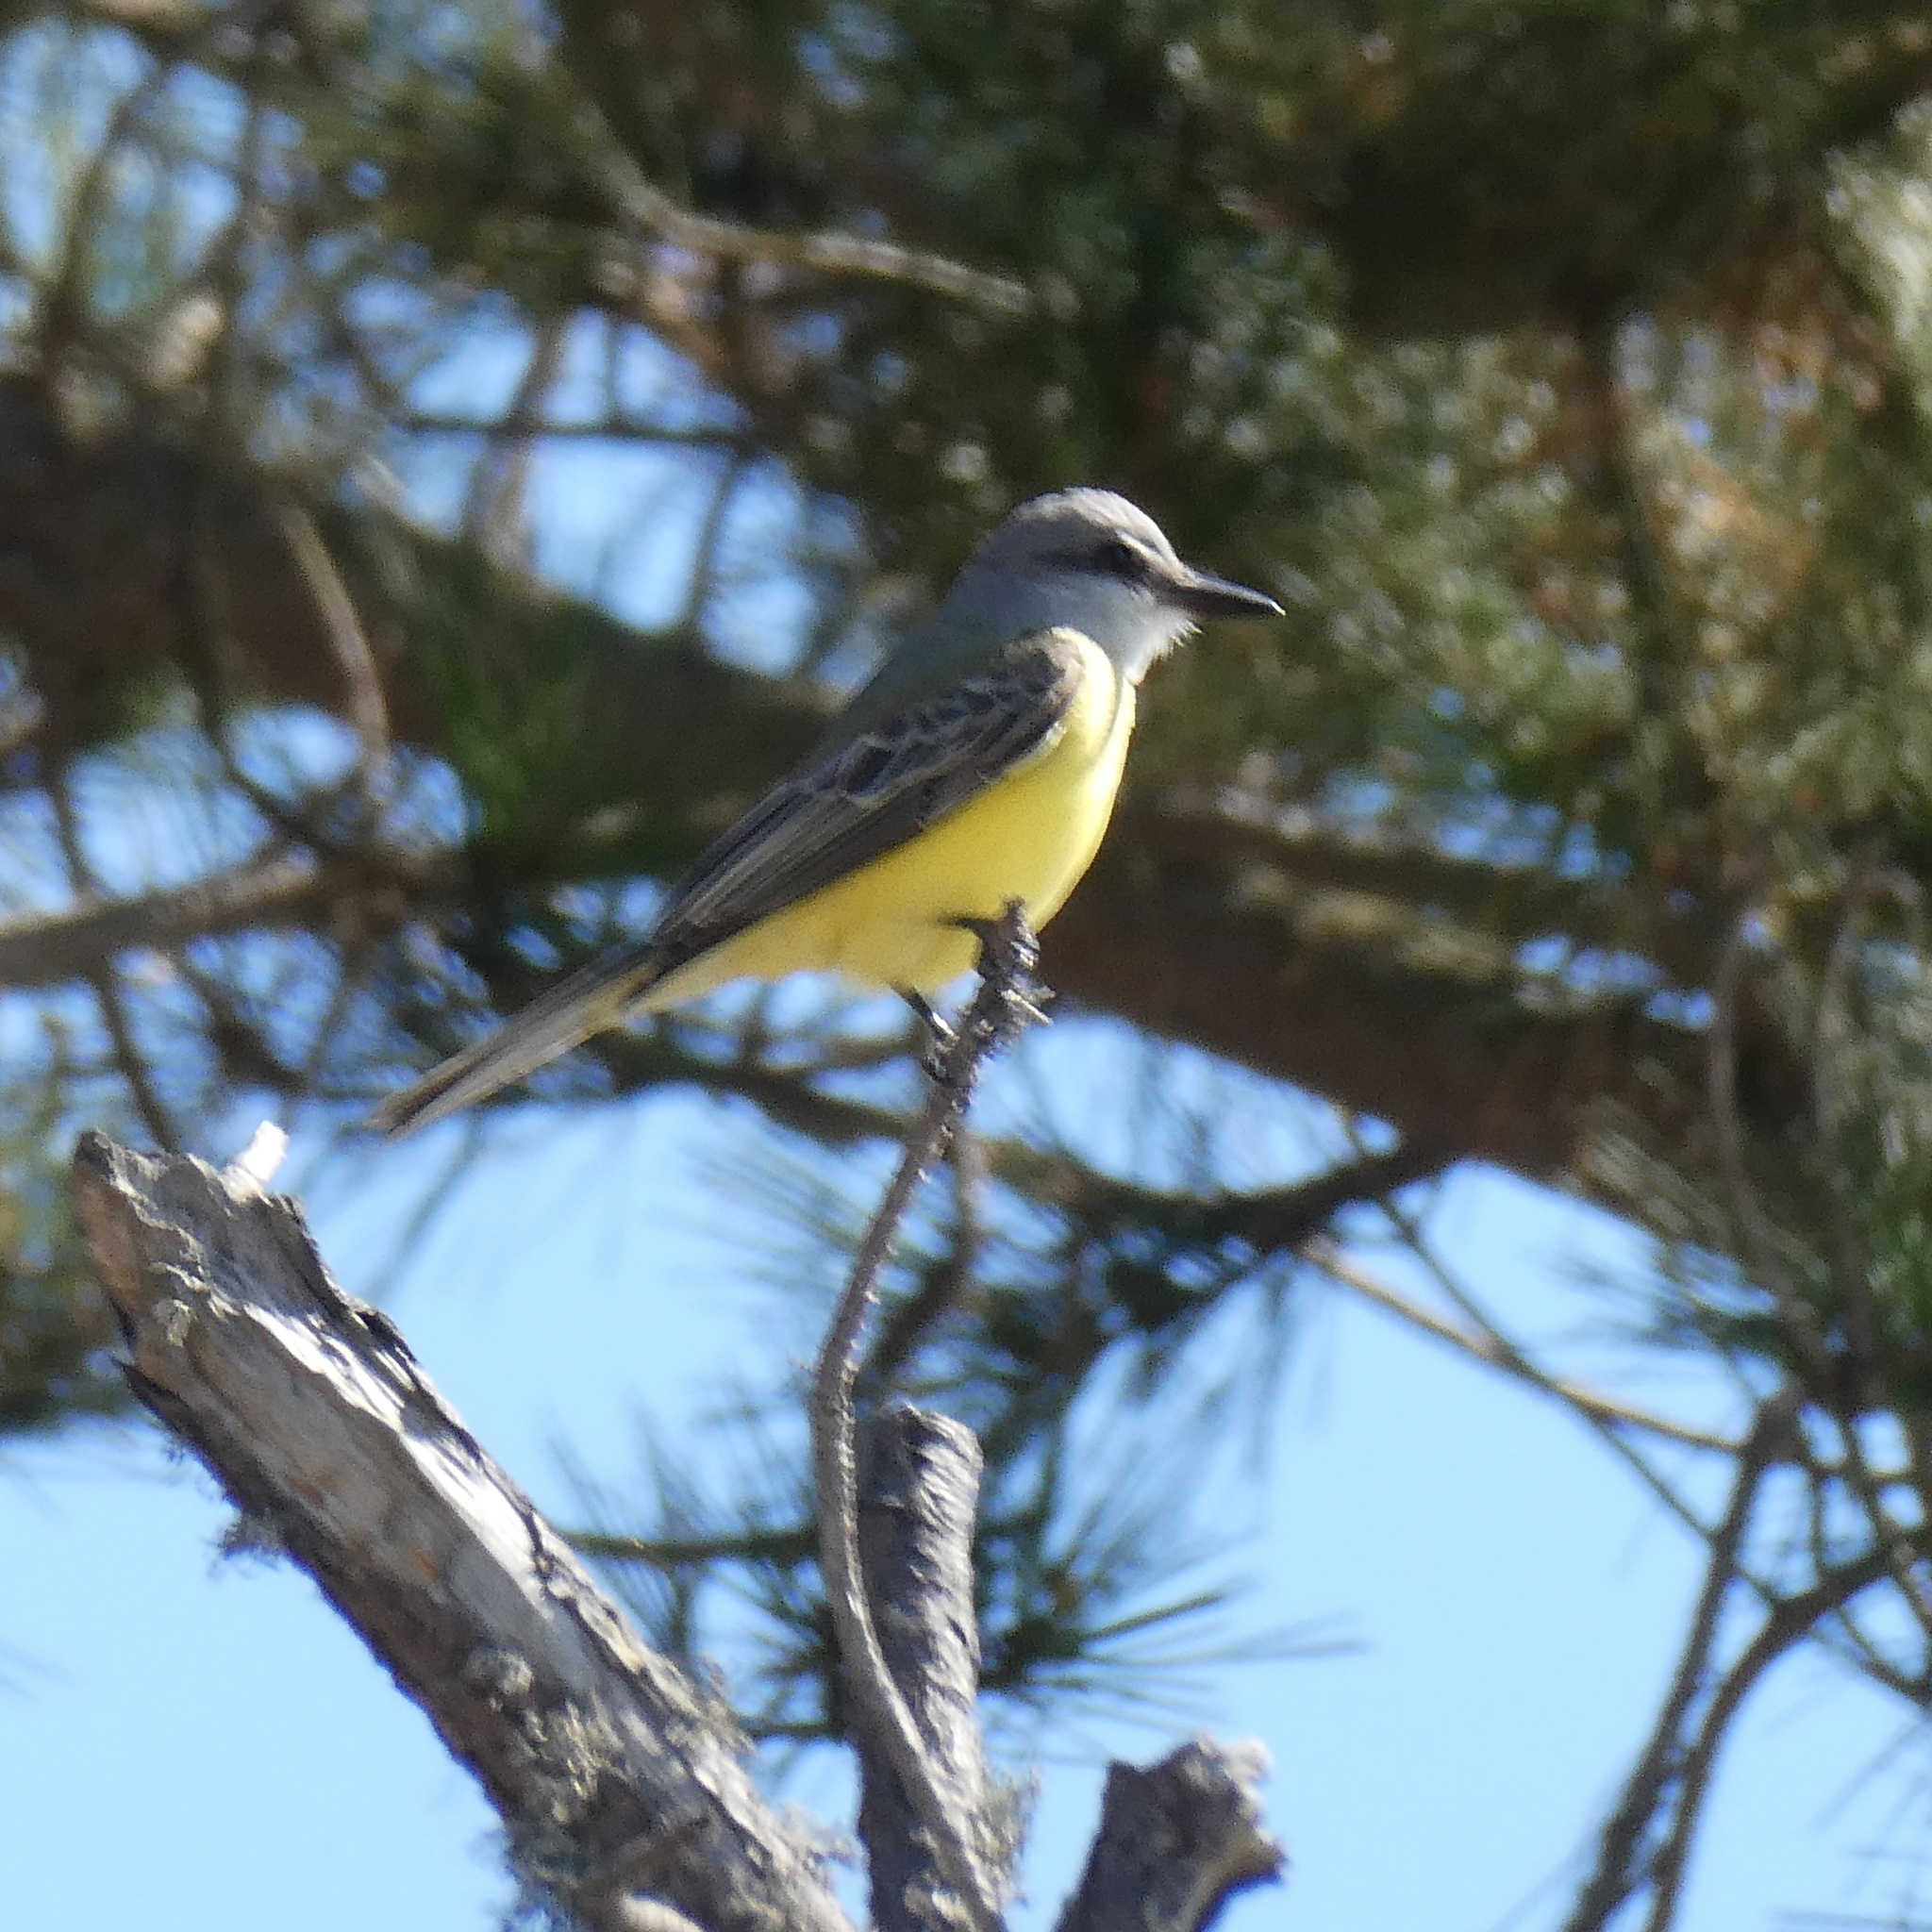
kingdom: Animalia
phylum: Chordata
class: Aves
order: Passeriformes
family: Tyrannidae
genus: Tyrannus
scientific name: Tyrannus melancholicus
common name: Tropical kingbird
